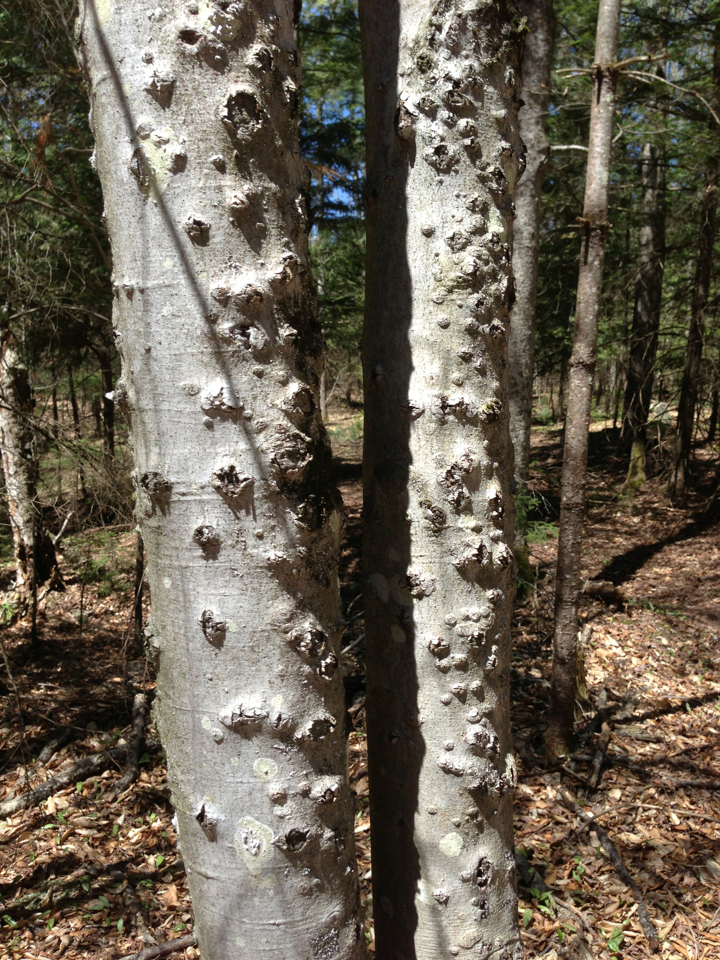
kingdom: Plantae
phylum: Tracheophyta
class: Magnoliopsida
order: Fagales
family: Fagaceae
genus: Fagus
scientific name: Fagus grandifolia
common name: American beech
